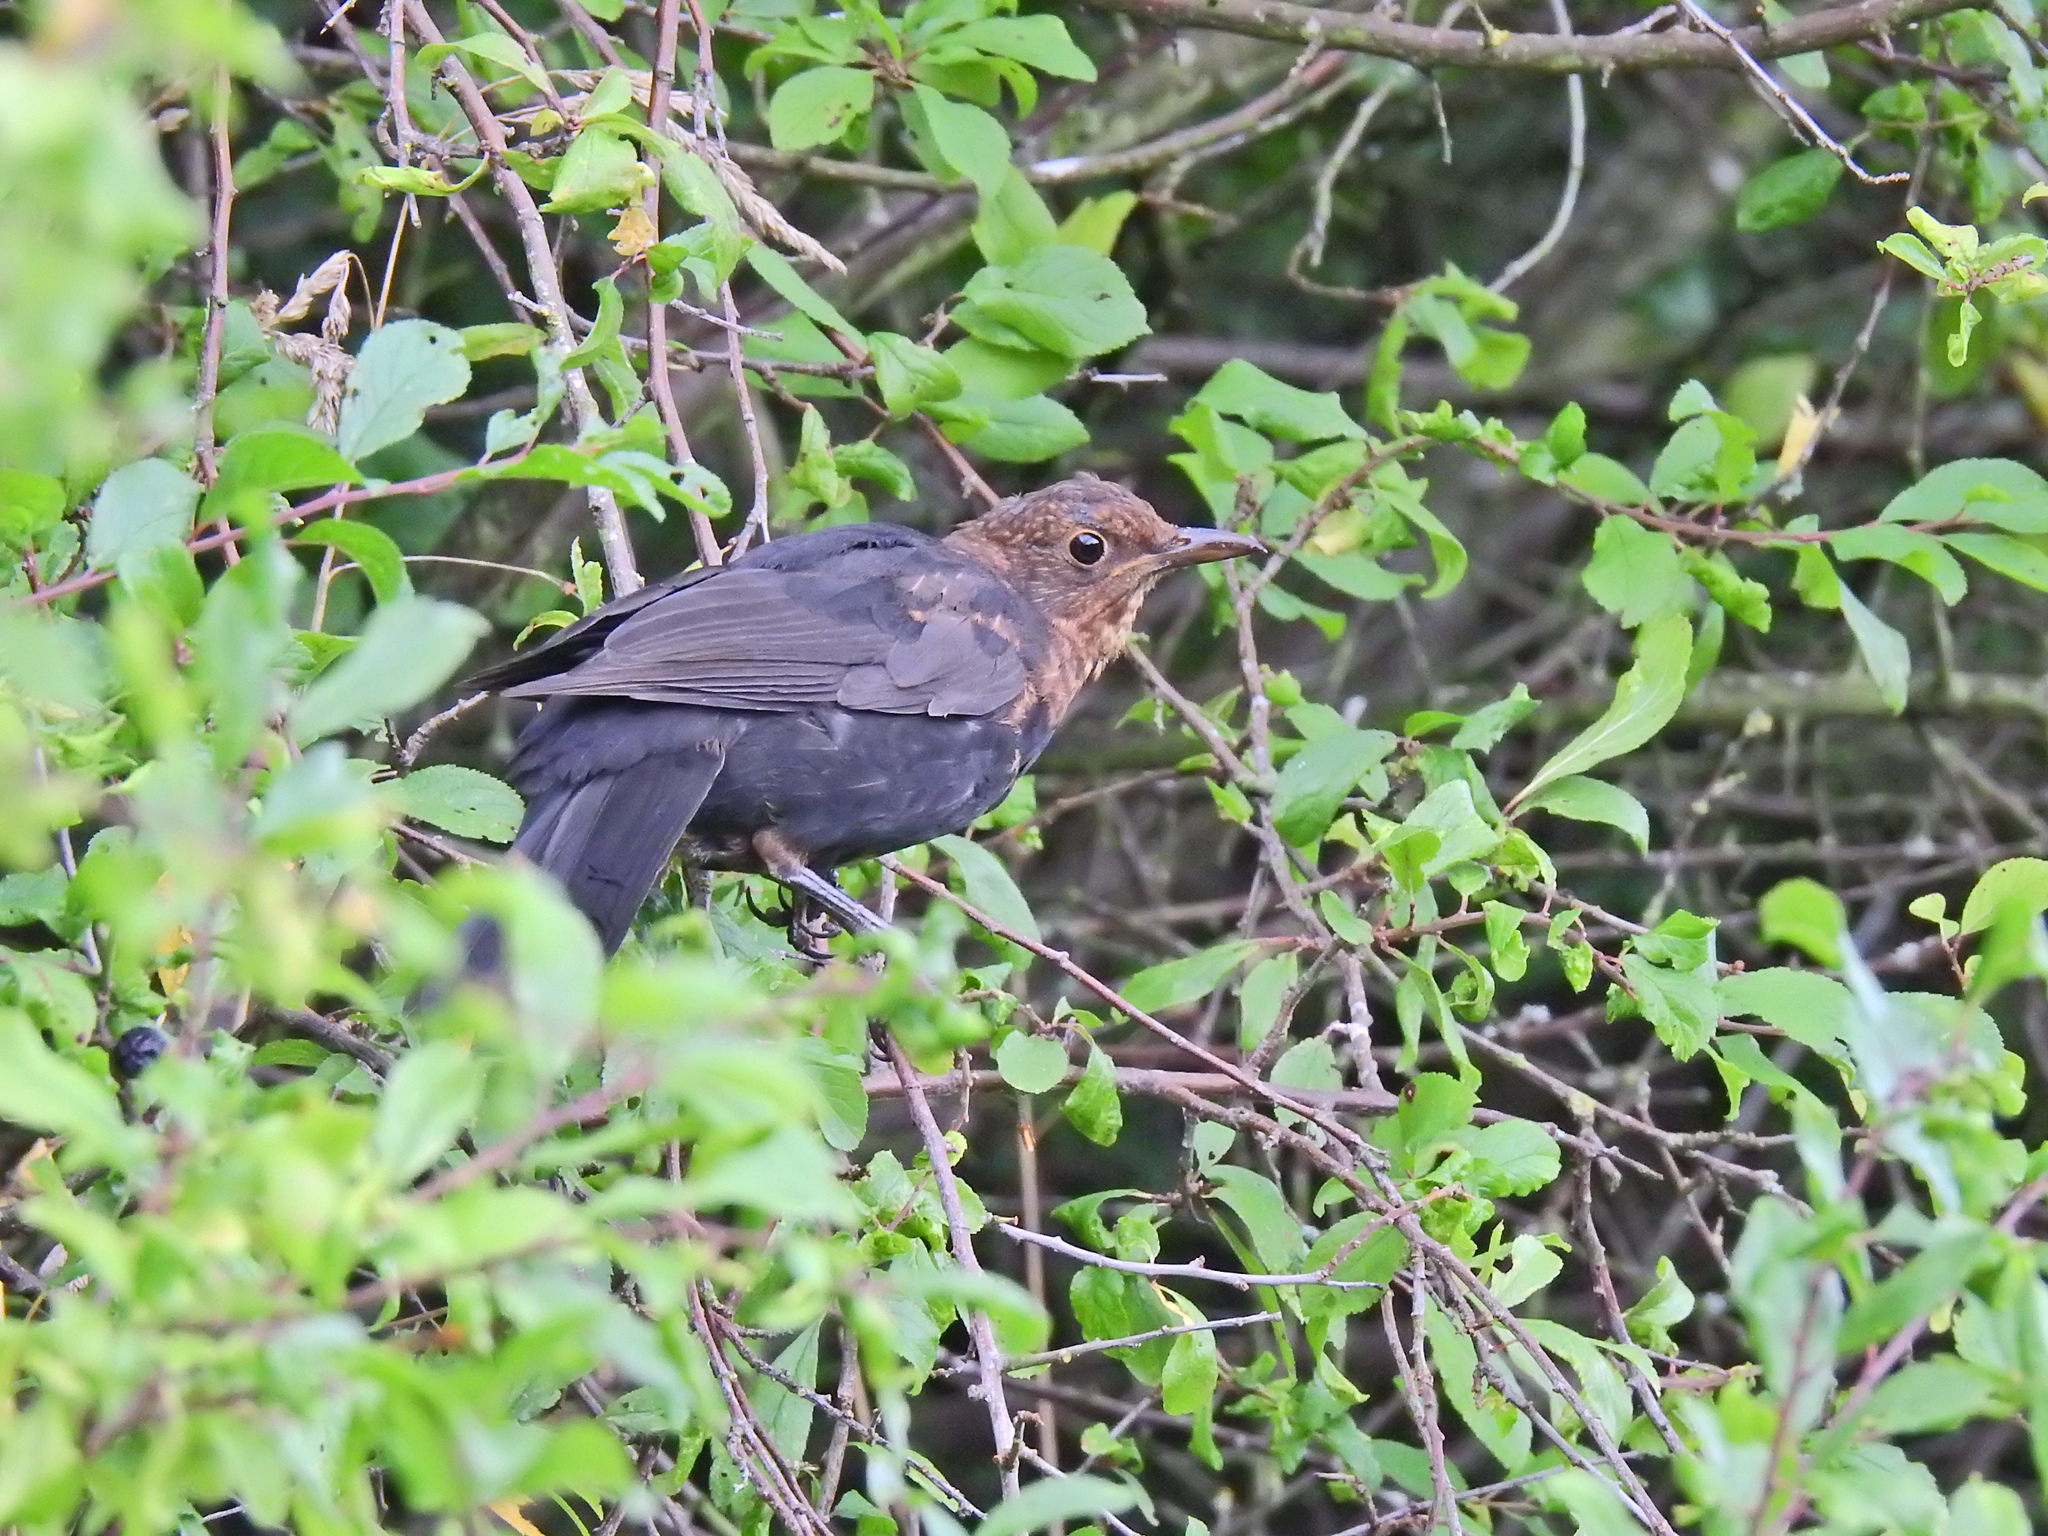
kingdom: Animalia
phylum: Chordata
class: Aves
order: Passeriformes
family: Turdidae
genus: Turdus
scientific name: Turdus merula
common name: Common blackbird
